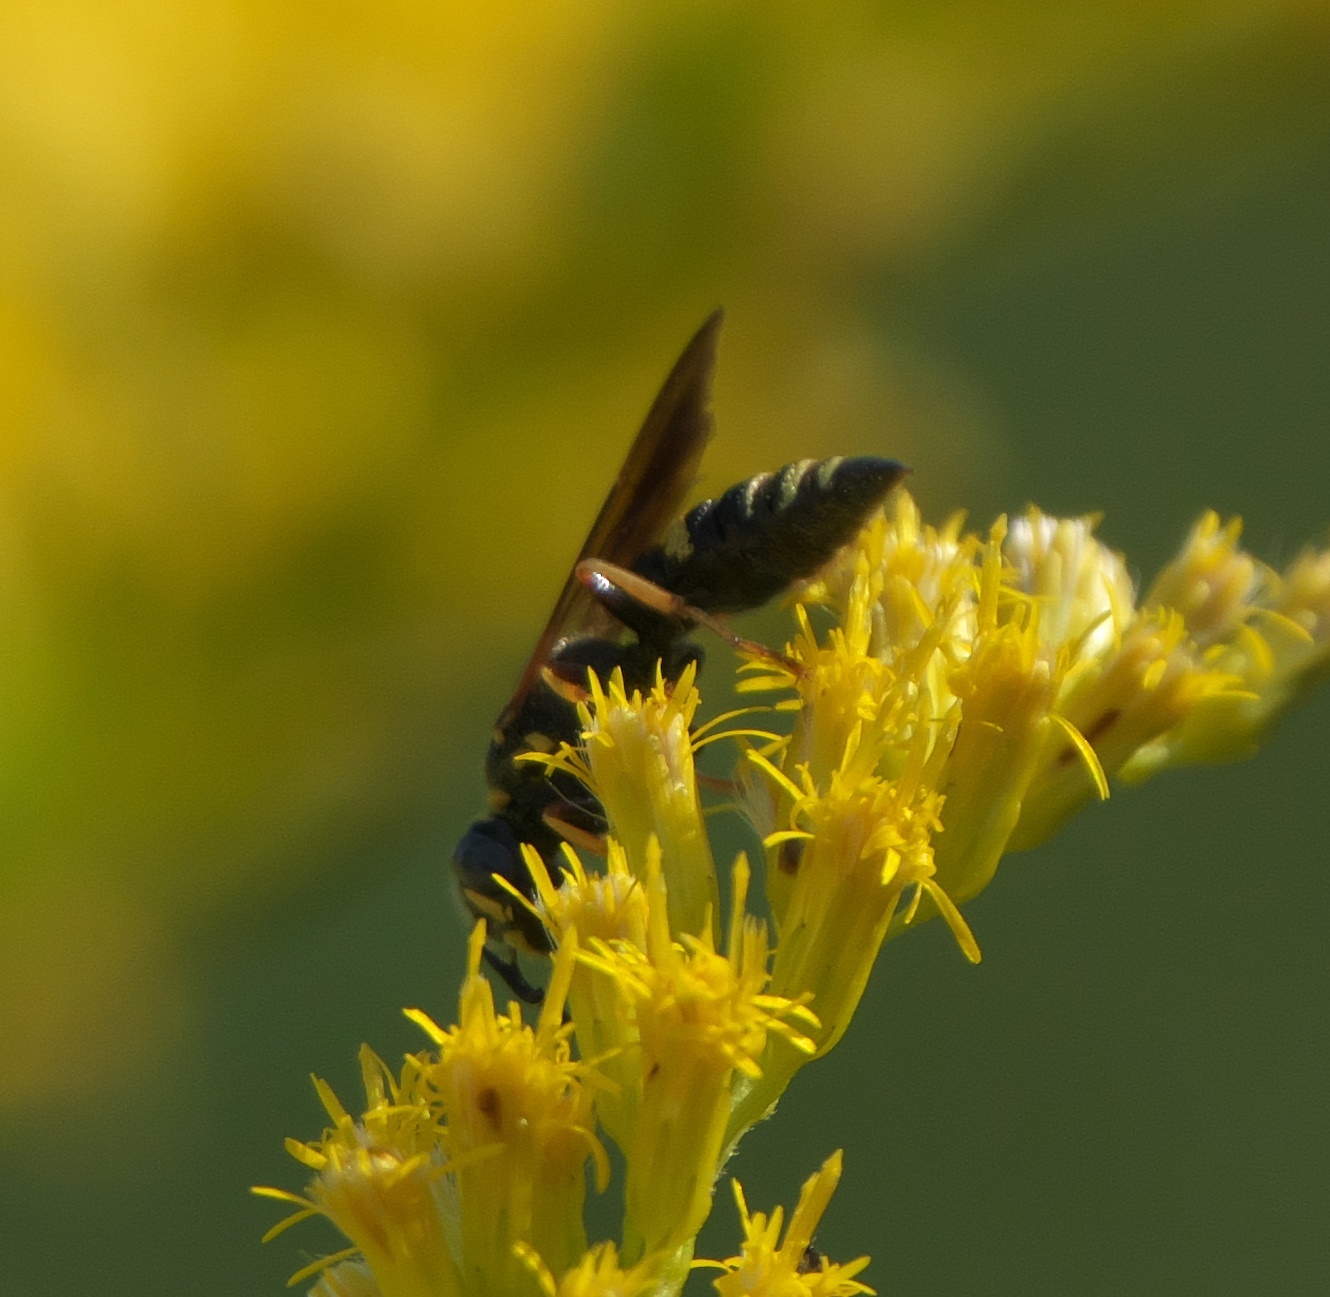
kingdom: Animalia
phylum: Arthropoda
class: Insecta
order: Hymenoptera
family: Crabronidae
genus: Philanthus
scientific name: Philanthus gibbosus
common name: Humped beewolf
